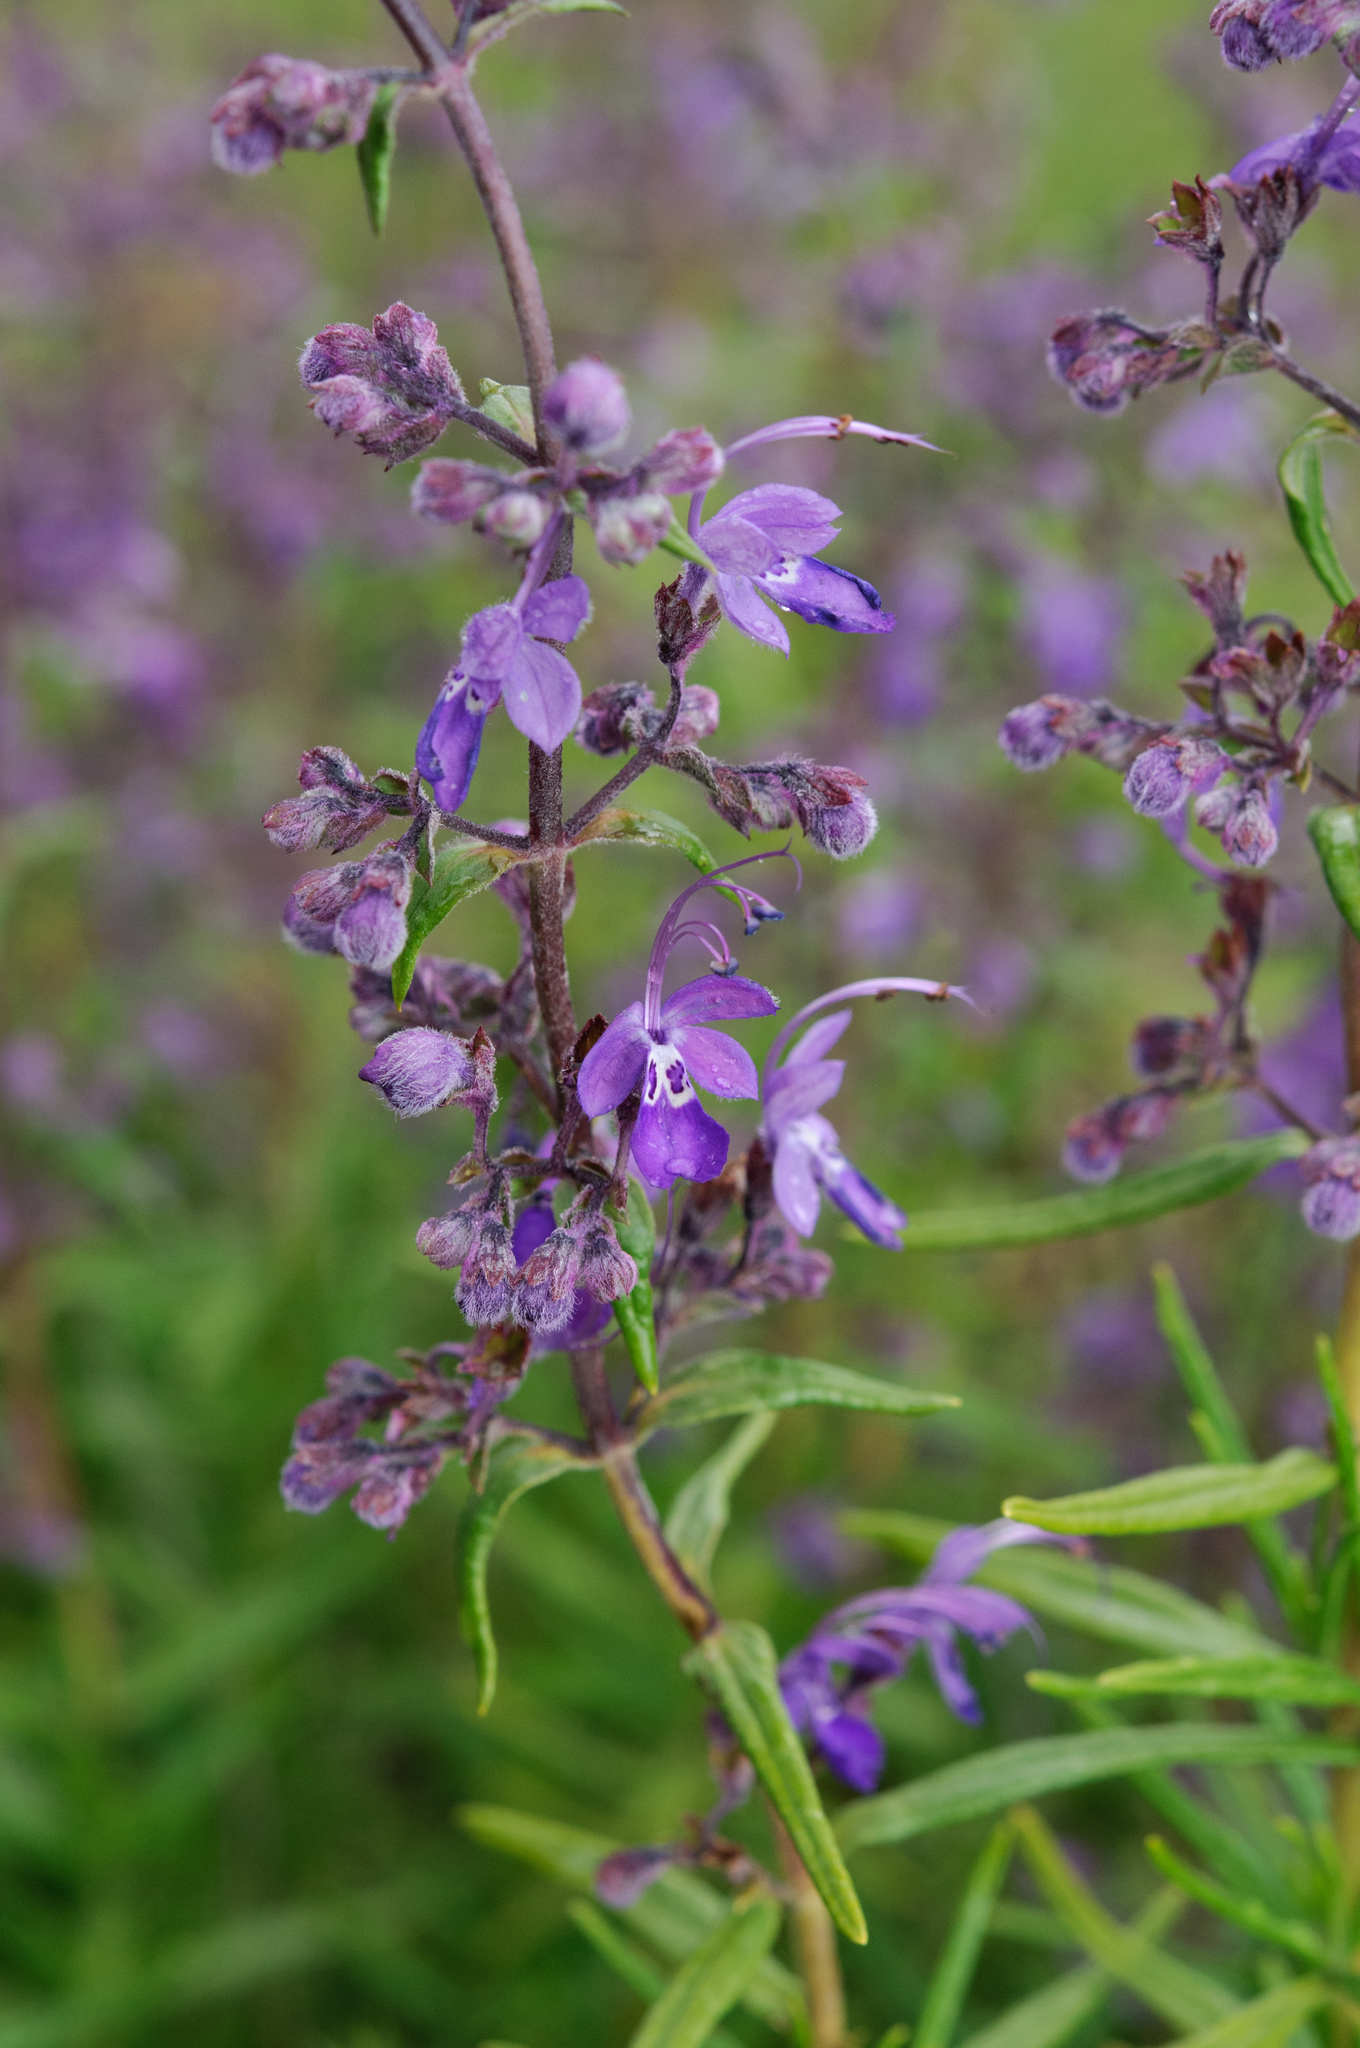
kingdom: Plantae
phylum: Tracheophyta
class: Magnoliopsida
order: Lamiales
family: Lamiaceae
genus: Trichostema
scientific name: Trichostema parishii
